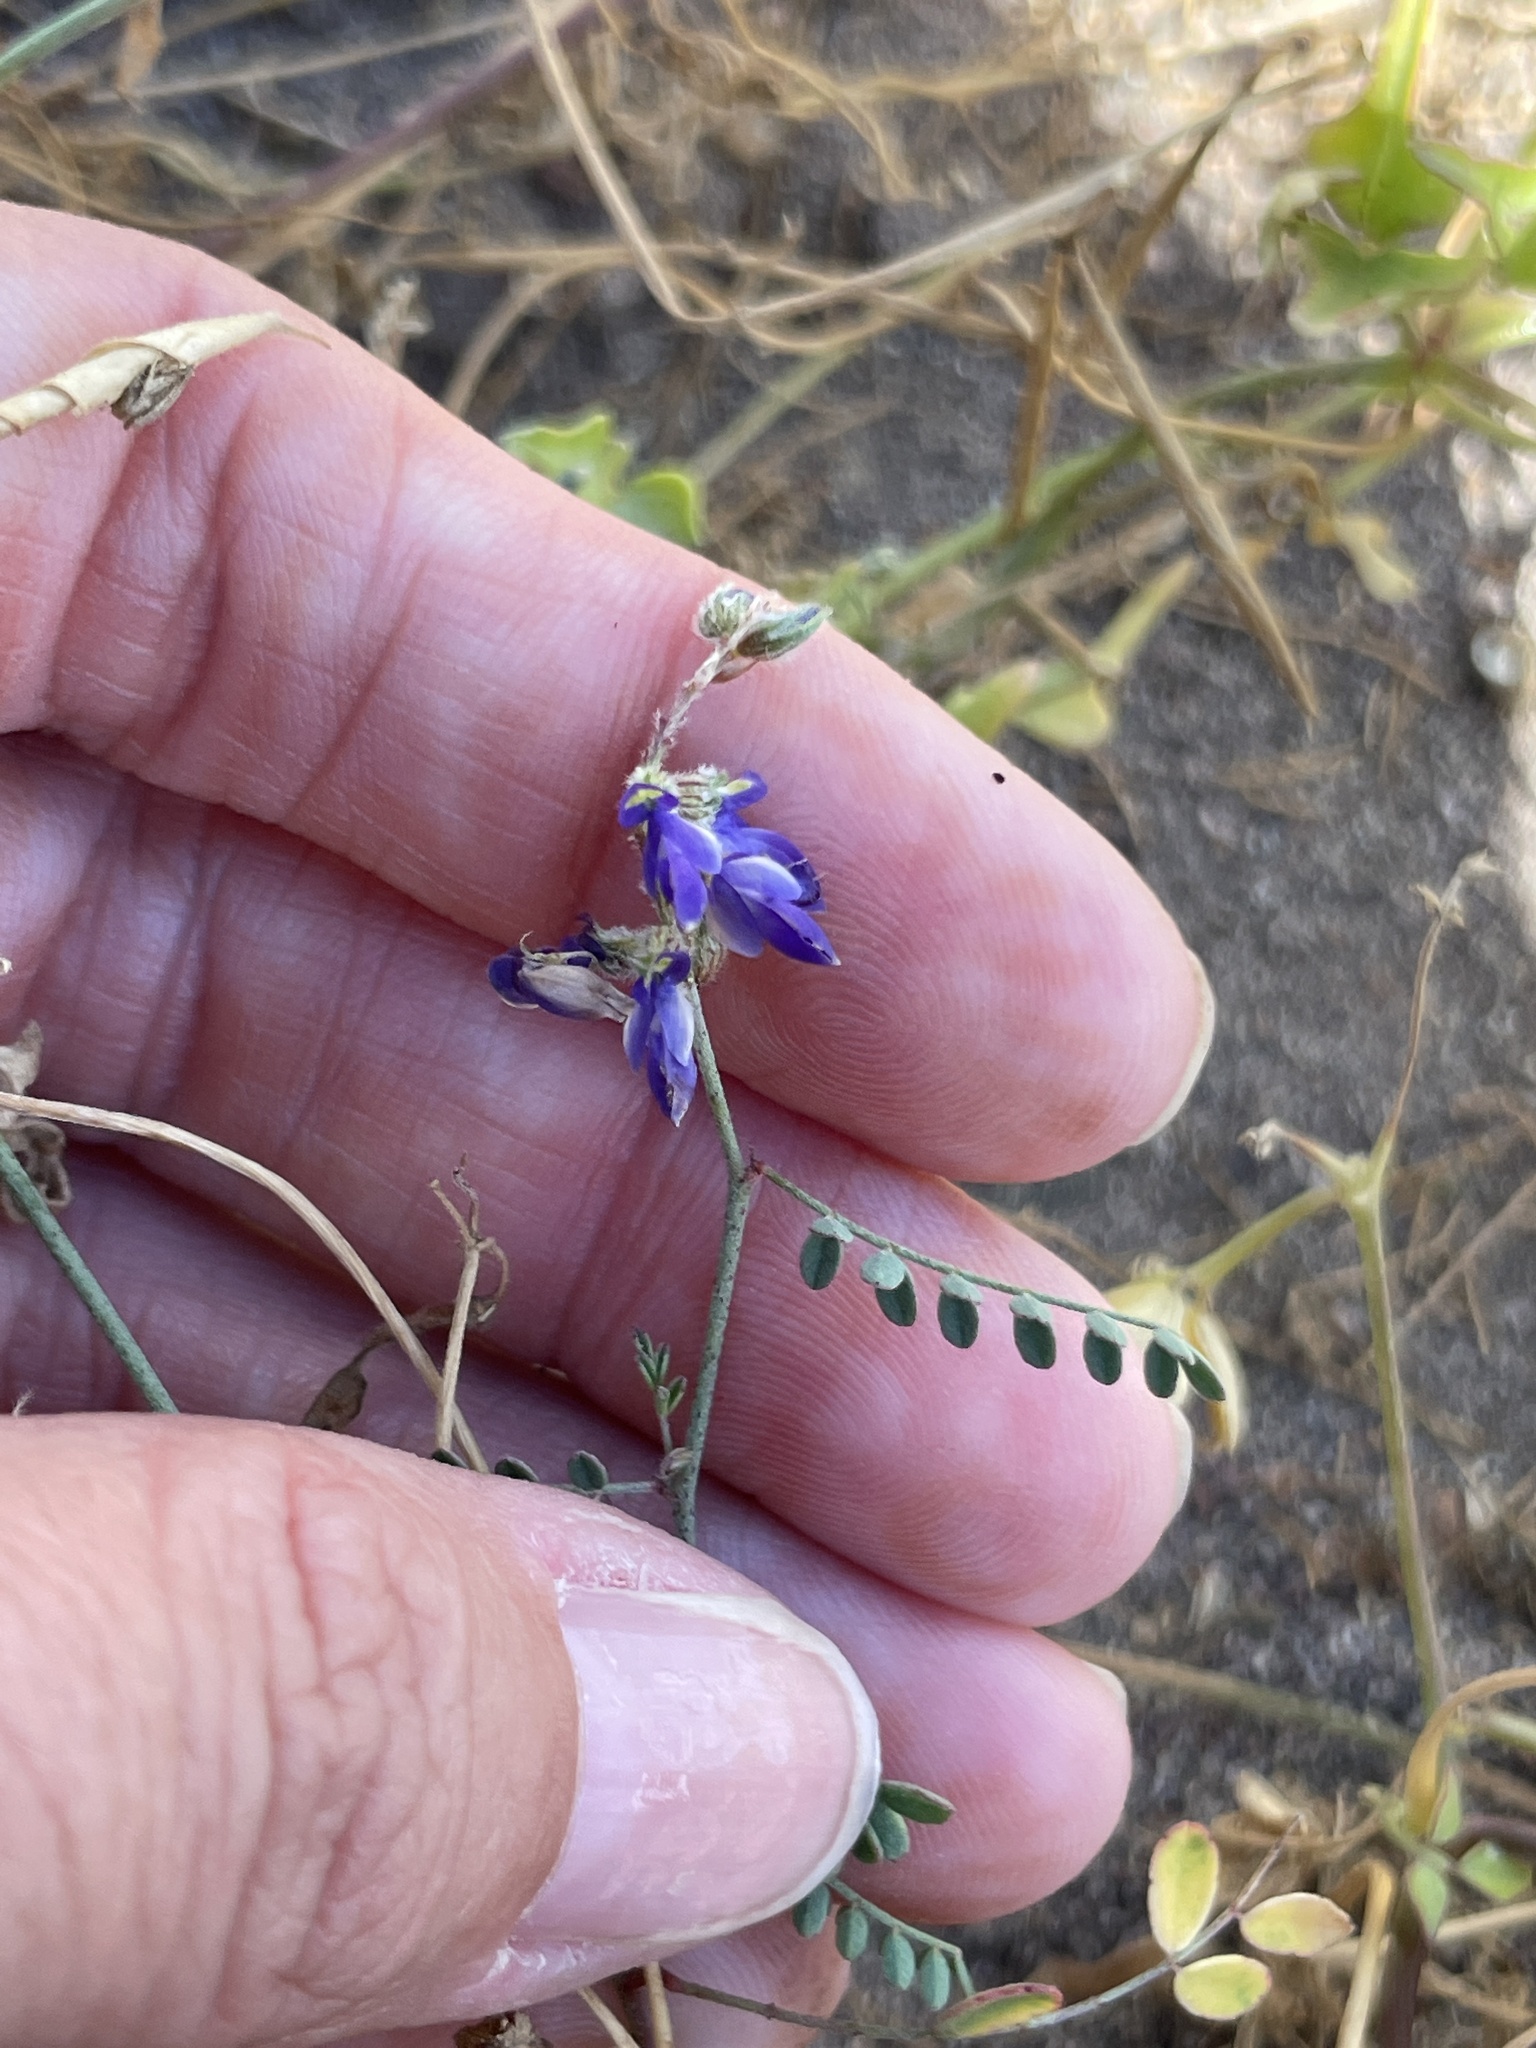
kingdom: Plantae
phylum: Tracheophyta
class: Magnoliopsida
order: Fabales
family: Fabaceae
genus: Marina
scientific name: Marina parryi
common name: Parry's marina
